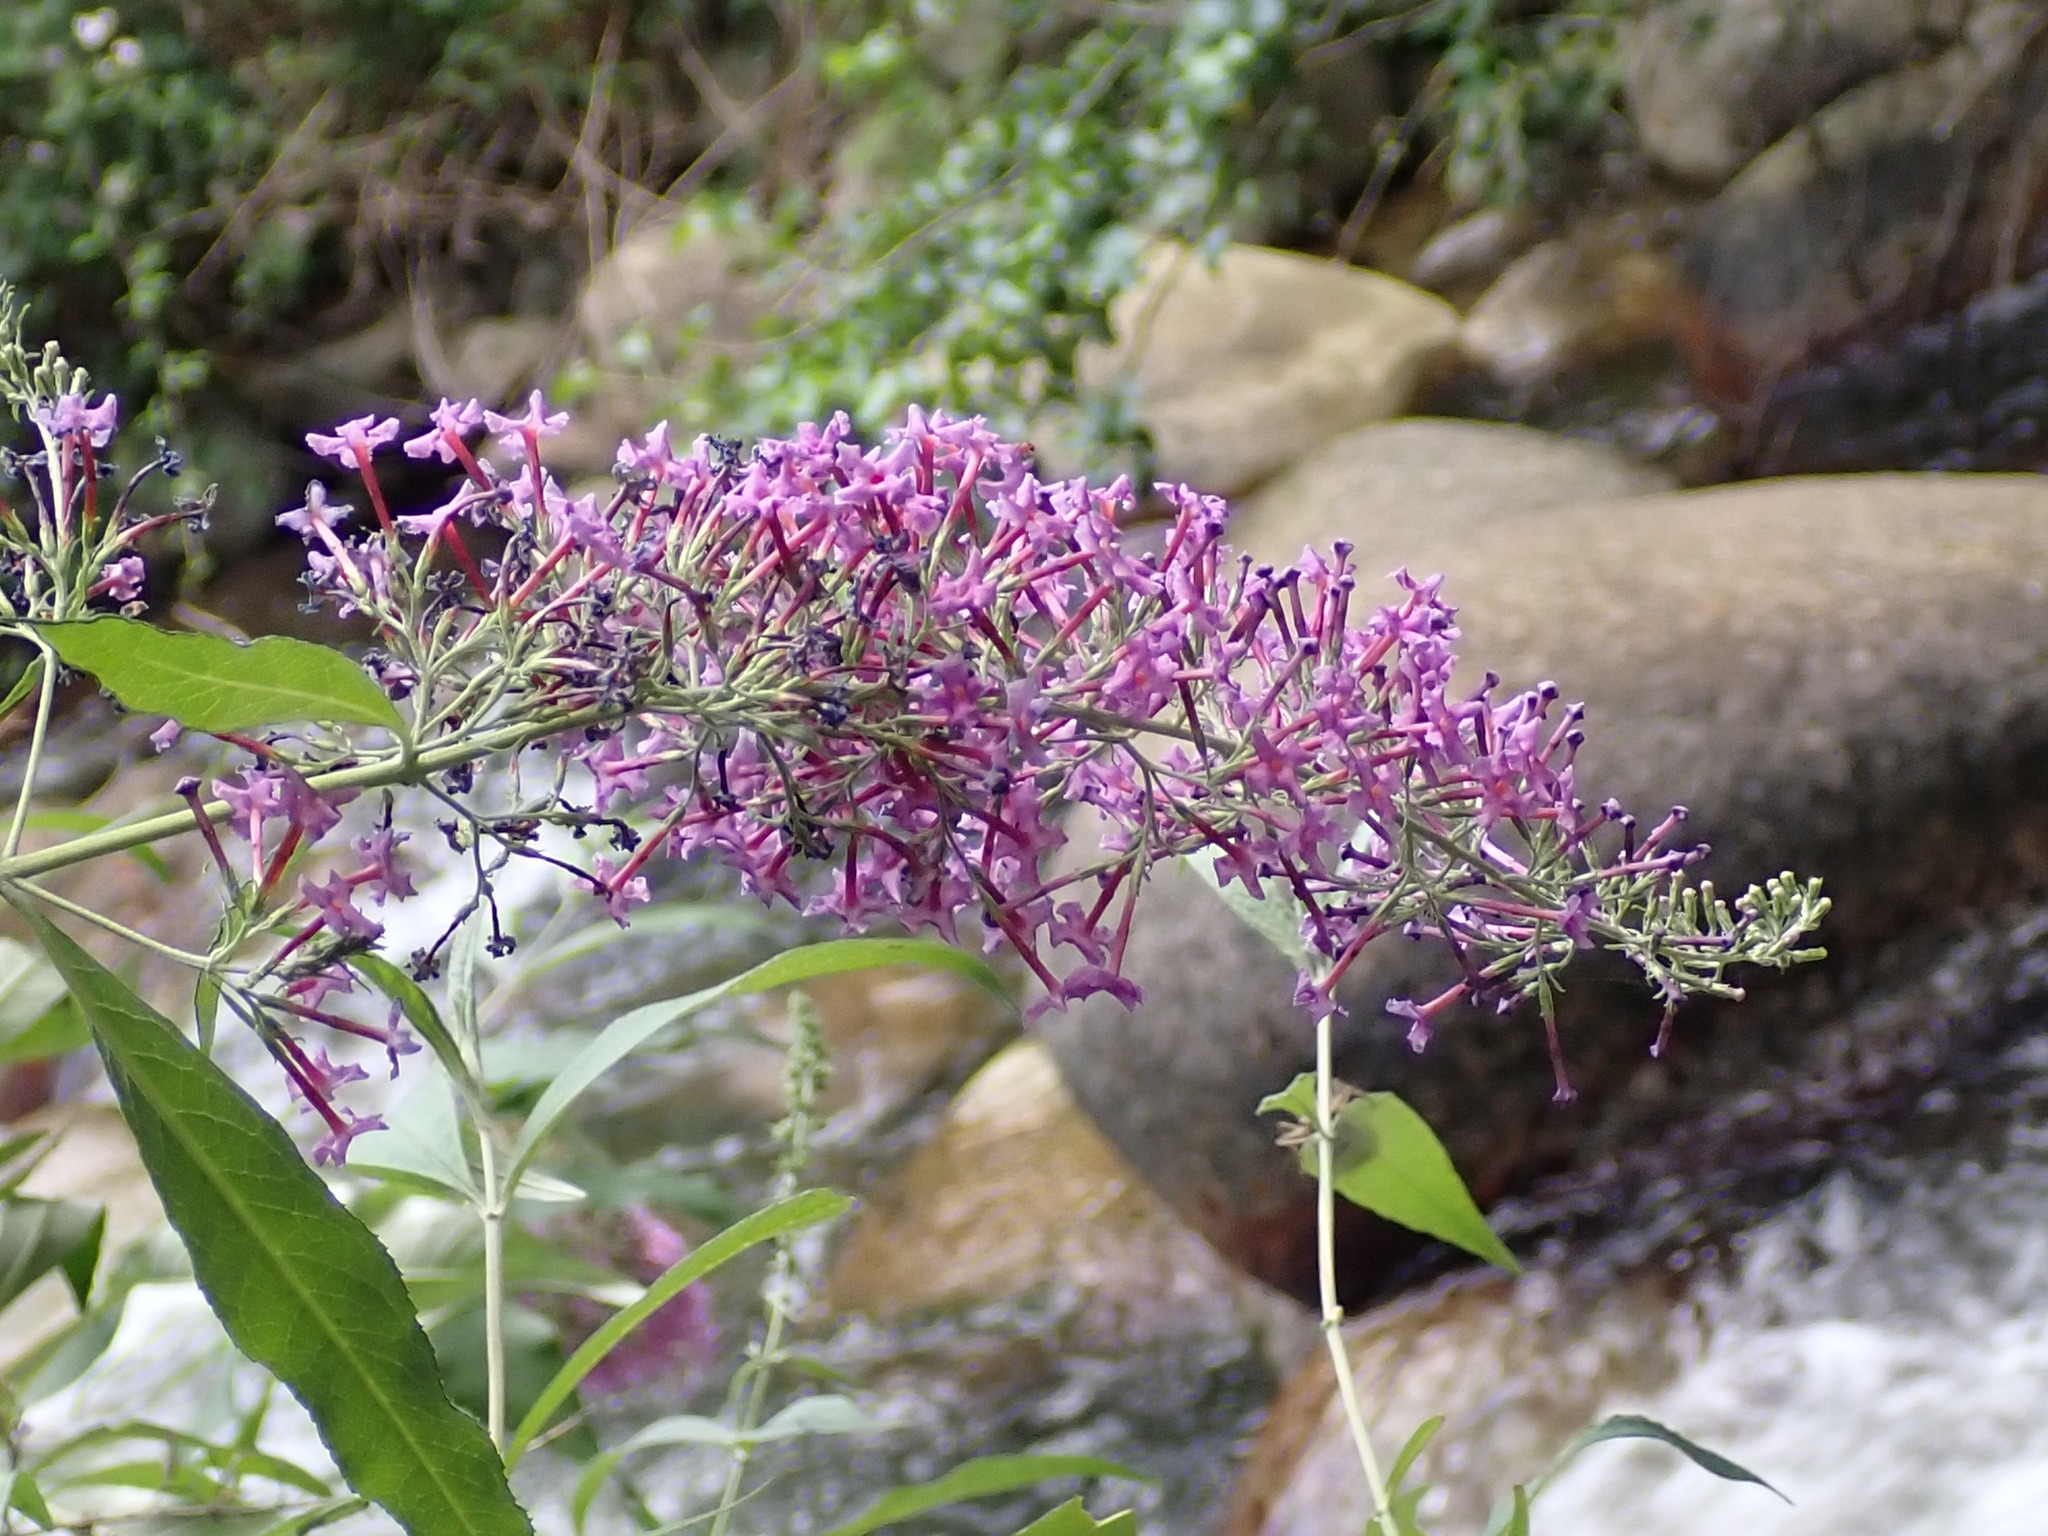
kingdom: Plantae
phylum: Tracheophyta
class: Magnoliopsida
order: Lamiales
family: Scrophulariaceae
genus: Buddleja
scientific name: Buddleja davidii
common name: Butterfly-bush
